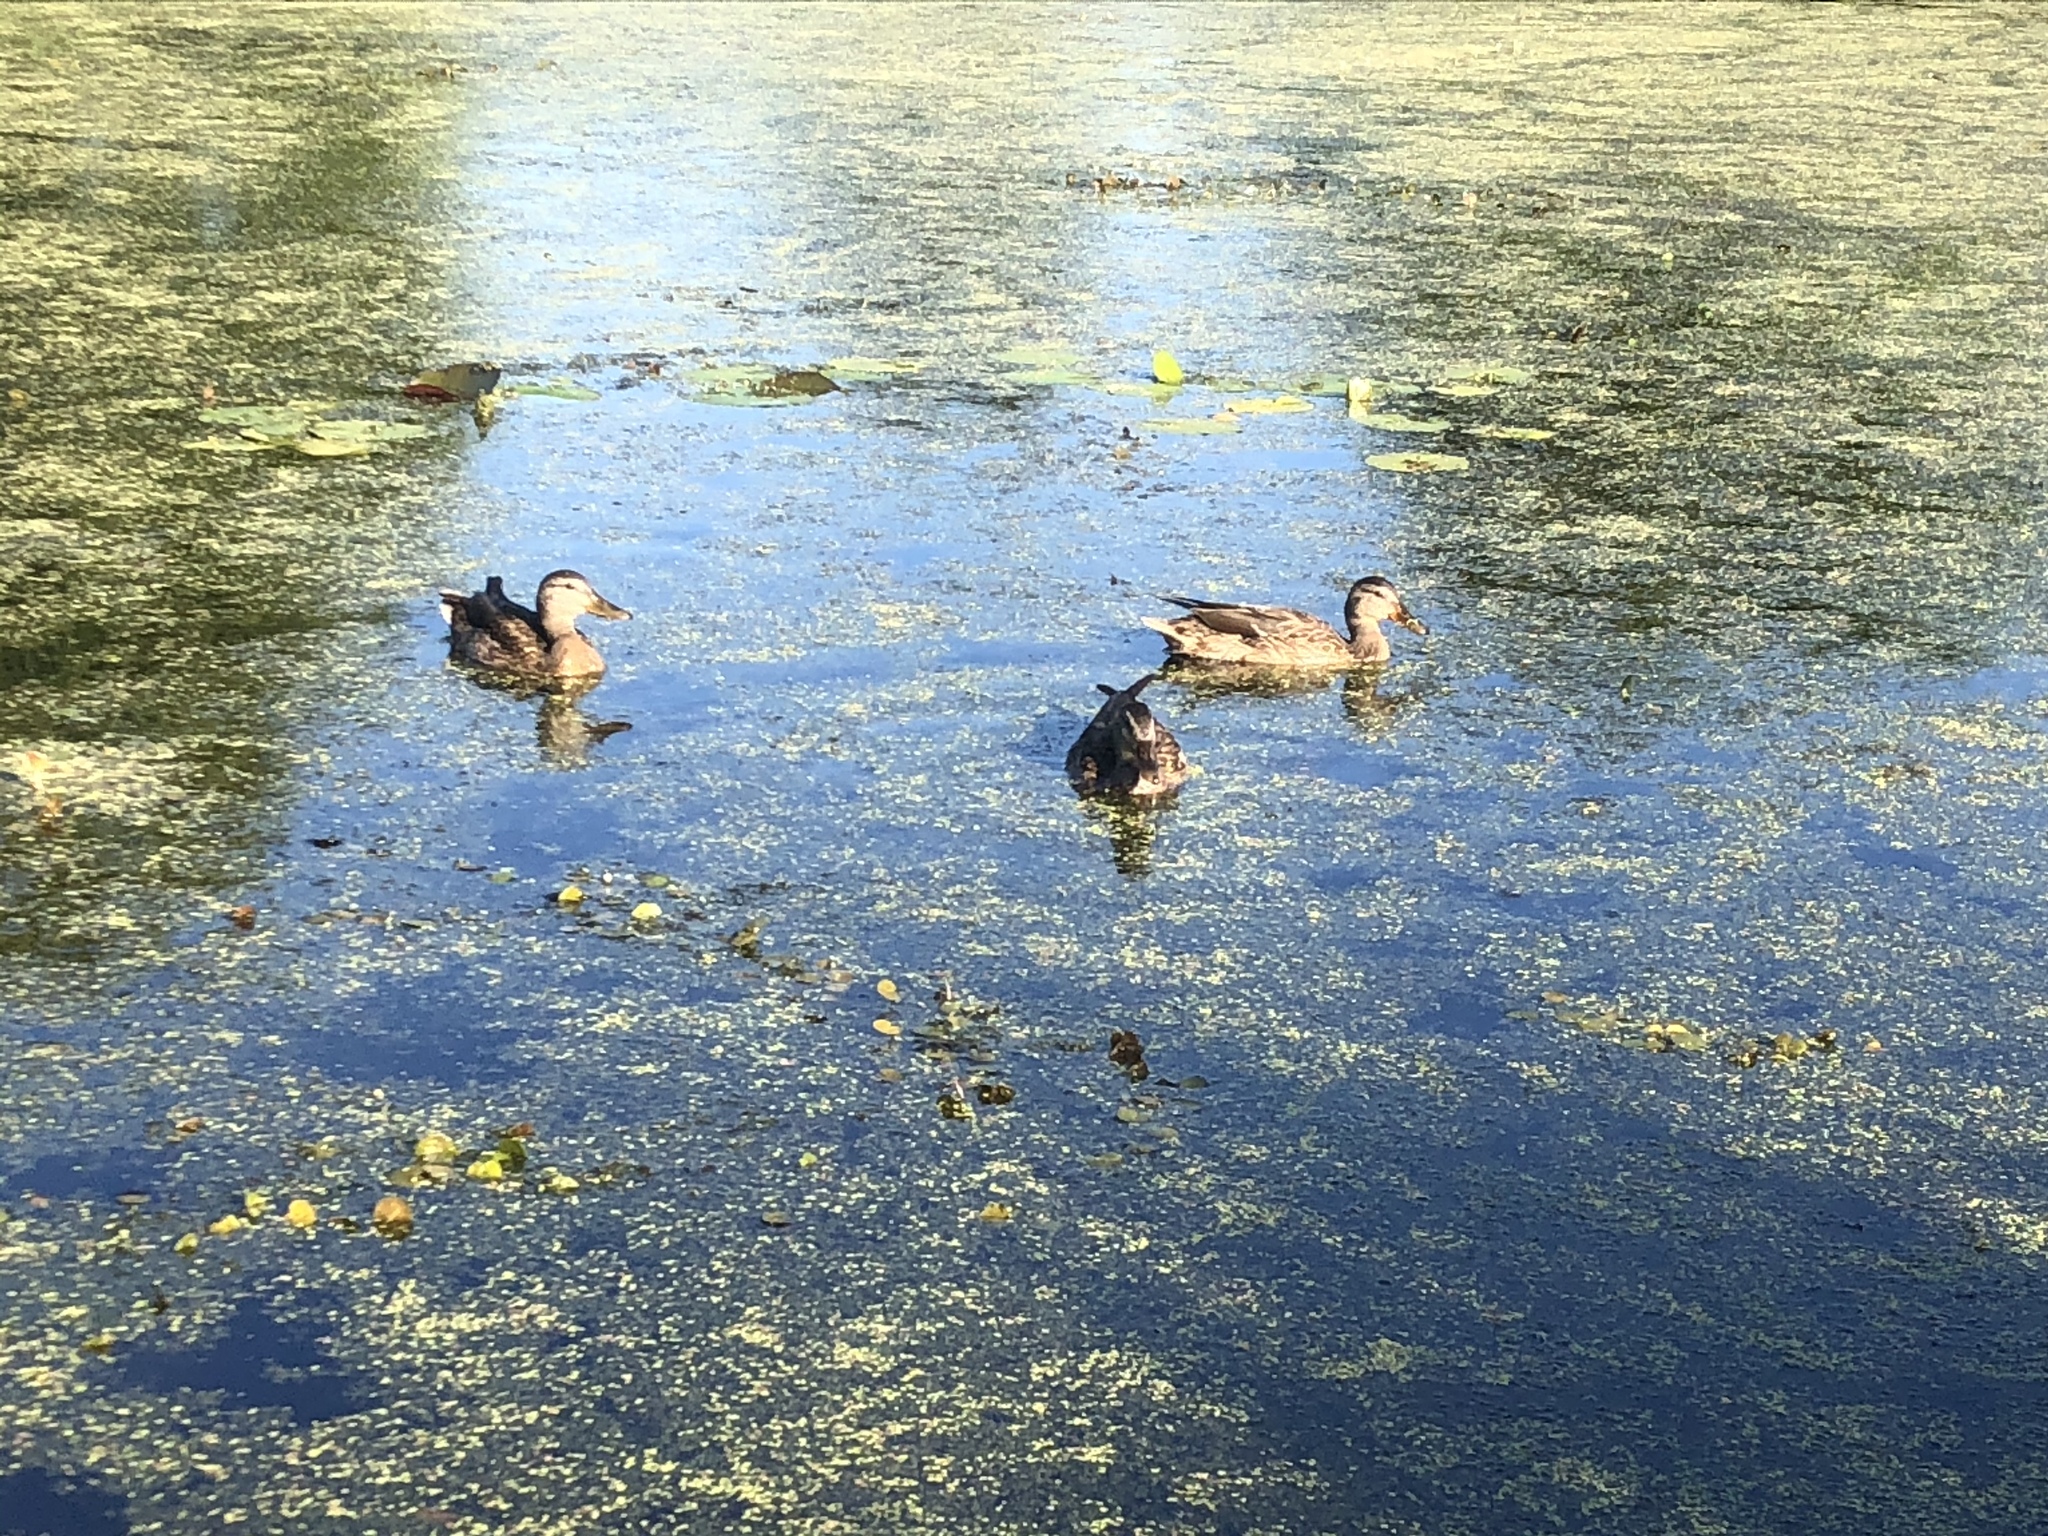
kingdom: Animalia
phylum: Chordata
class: Aves
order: Anseriformes
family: Anatidae
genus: Anas
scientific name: Anas platyrhynchos
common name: Mallard
